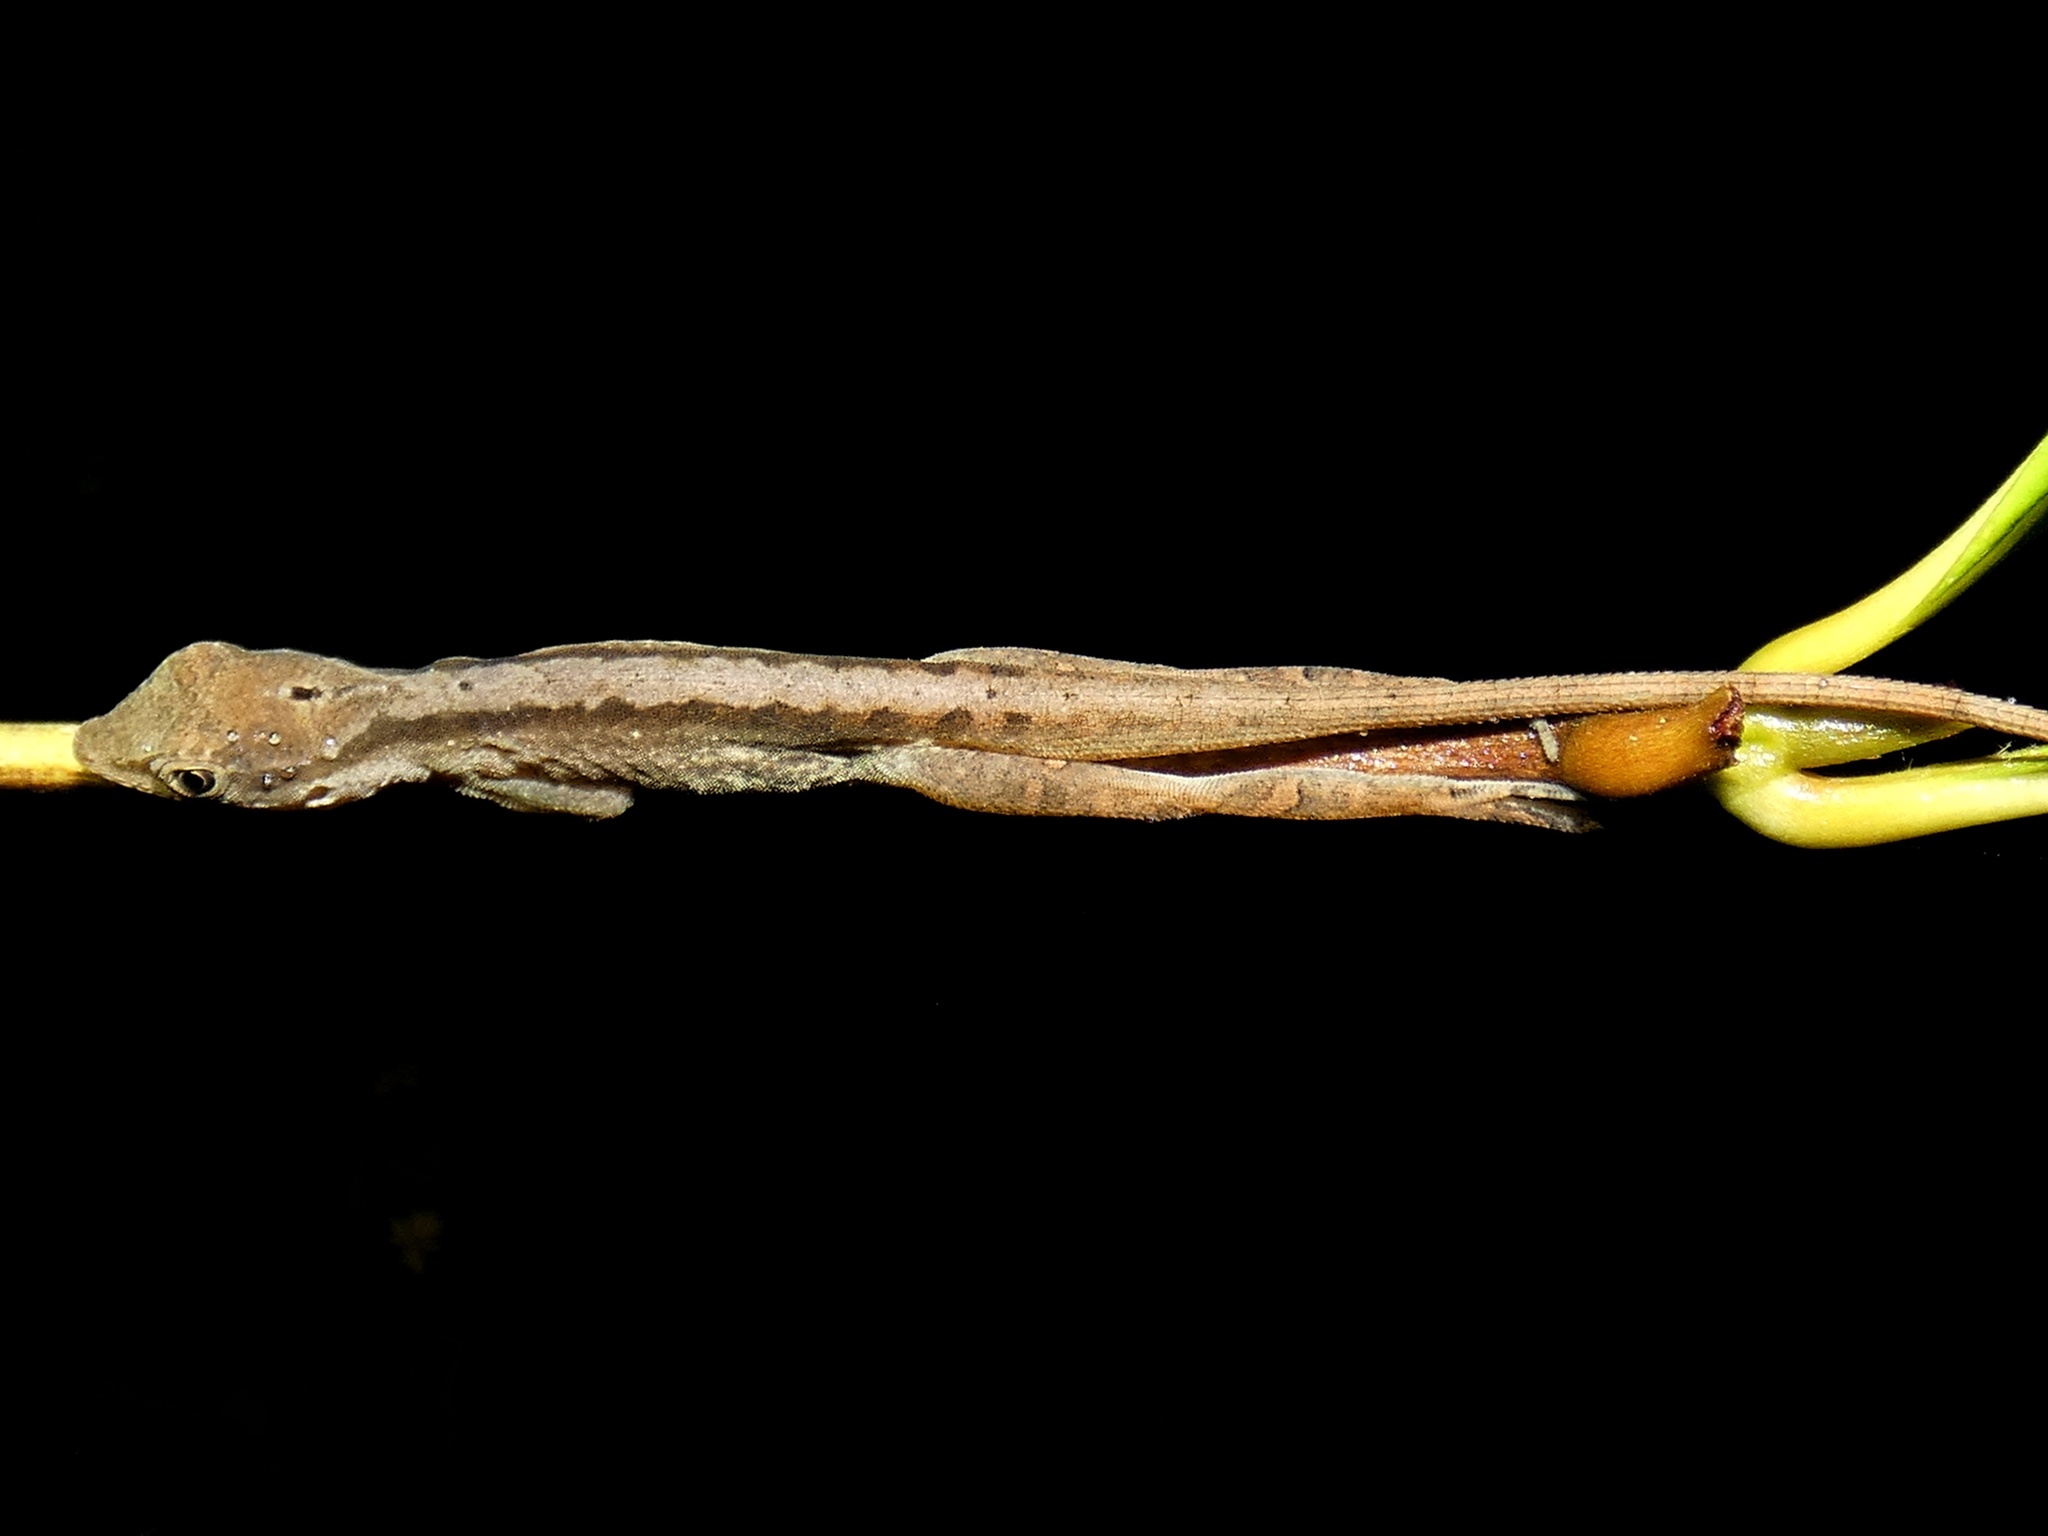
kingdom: Animalia
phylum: Chordata
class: Squamata
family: Dactyloidae
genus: Anolis
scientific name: Anolis gaigei
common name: Gaige’s anole
